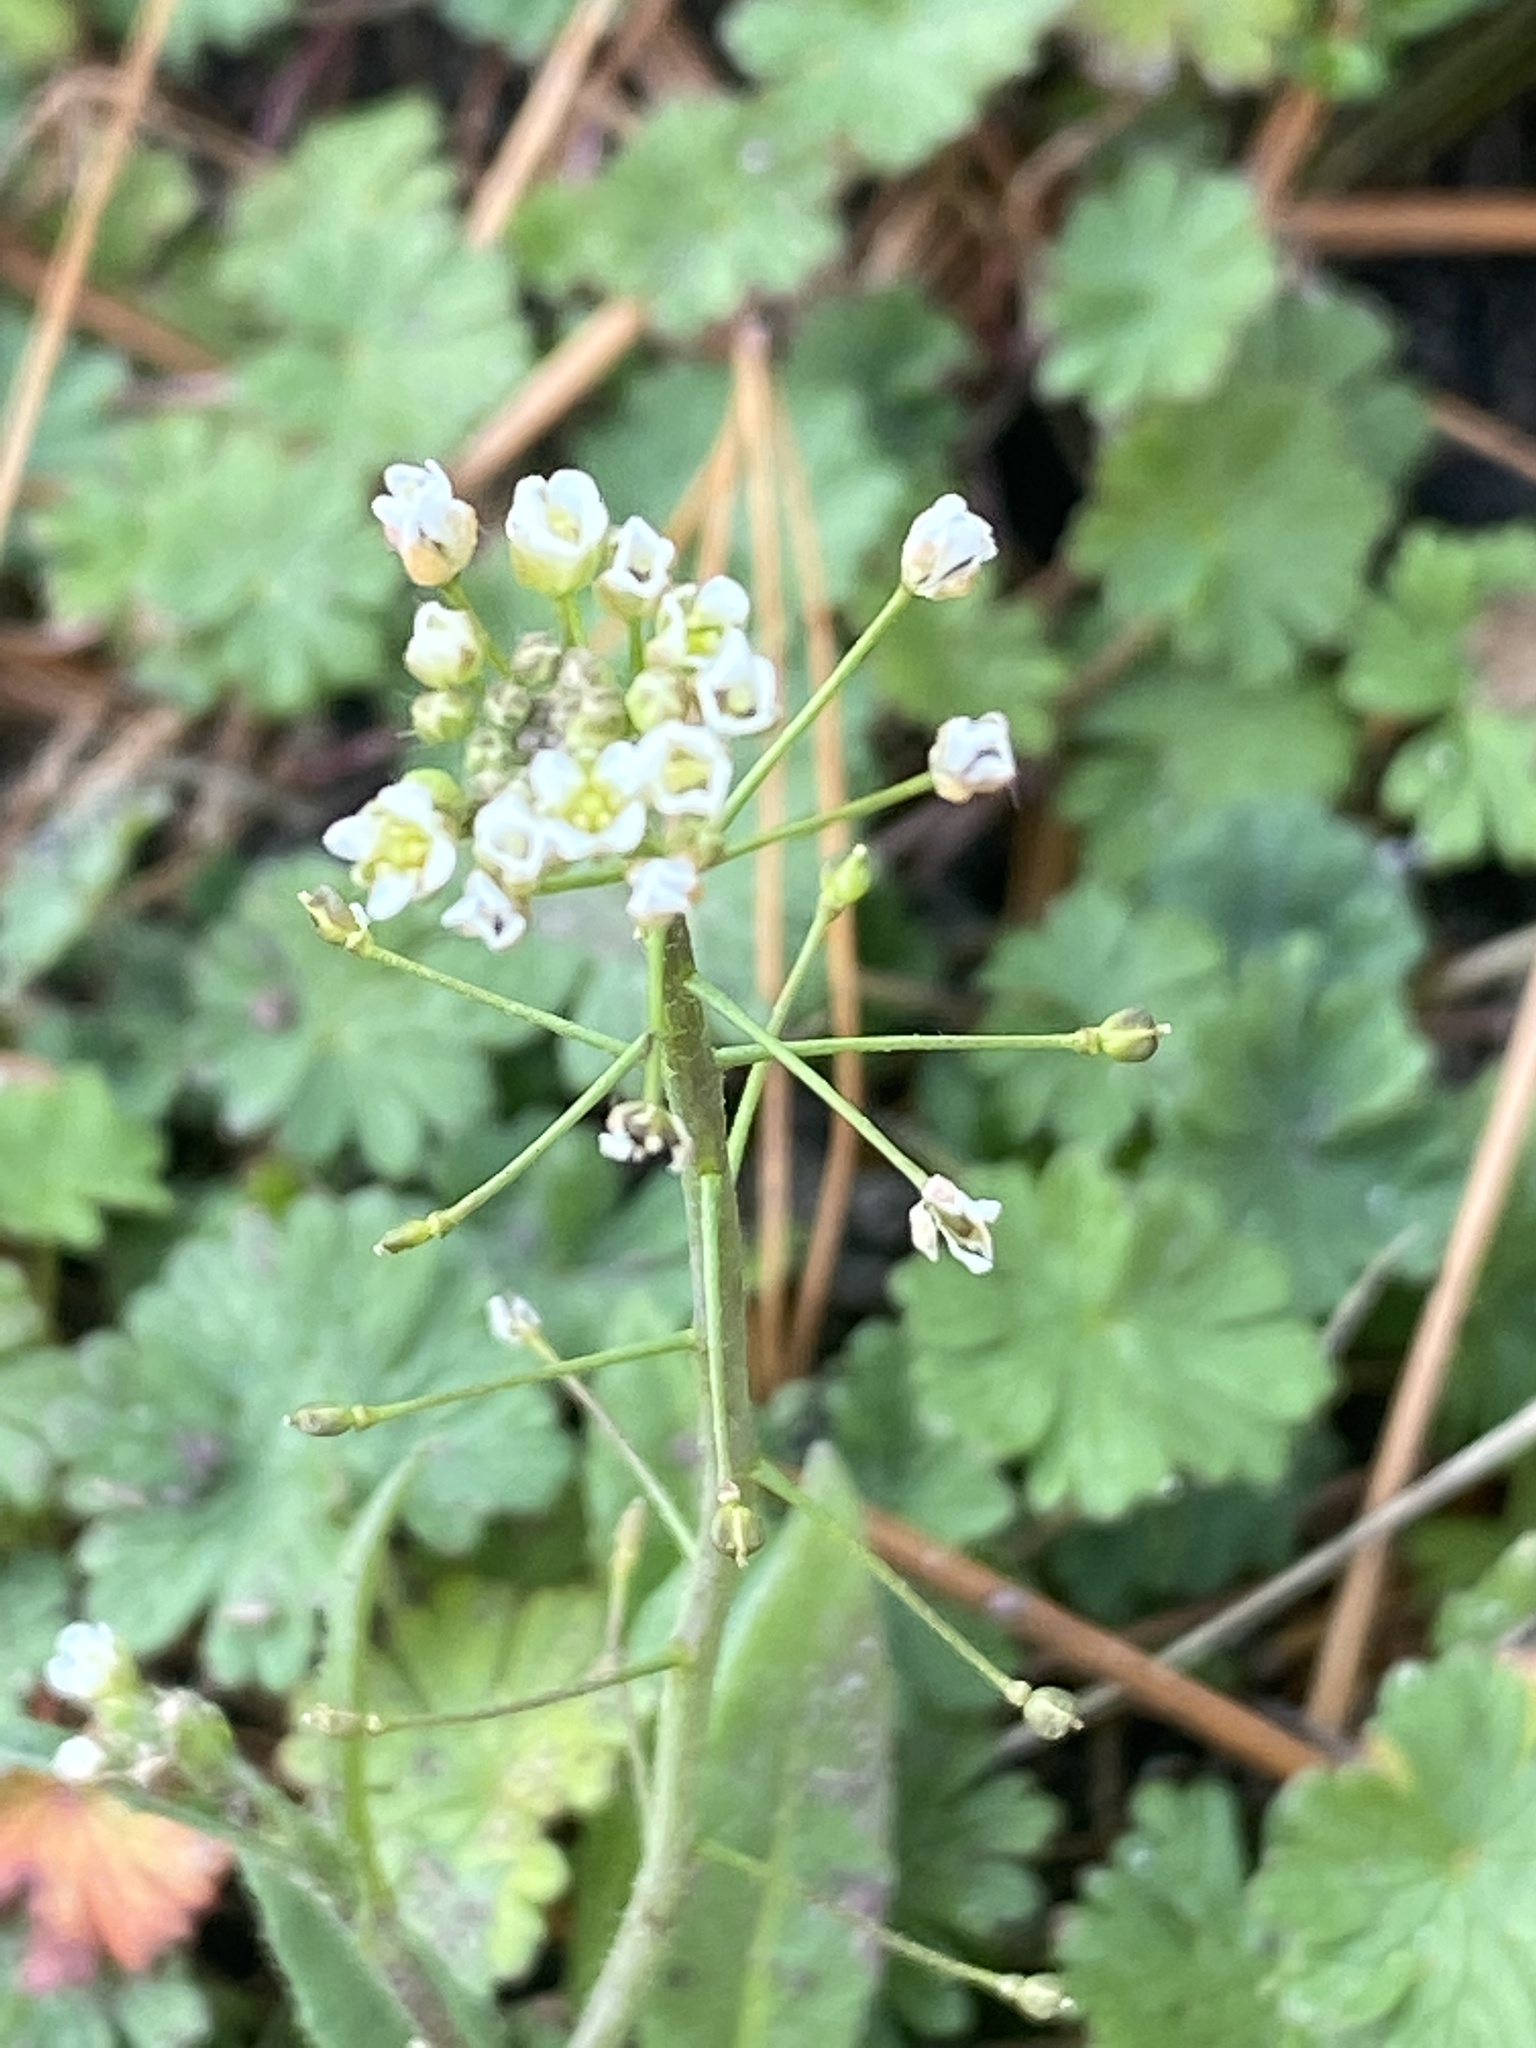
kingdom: Plantae
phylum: Tracheophyta
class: Magnoliopsida
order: Brassicales
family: Brassicaceae
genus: Capsella
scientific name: Capsella bursa-pastoris
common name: Shepherd's purse
